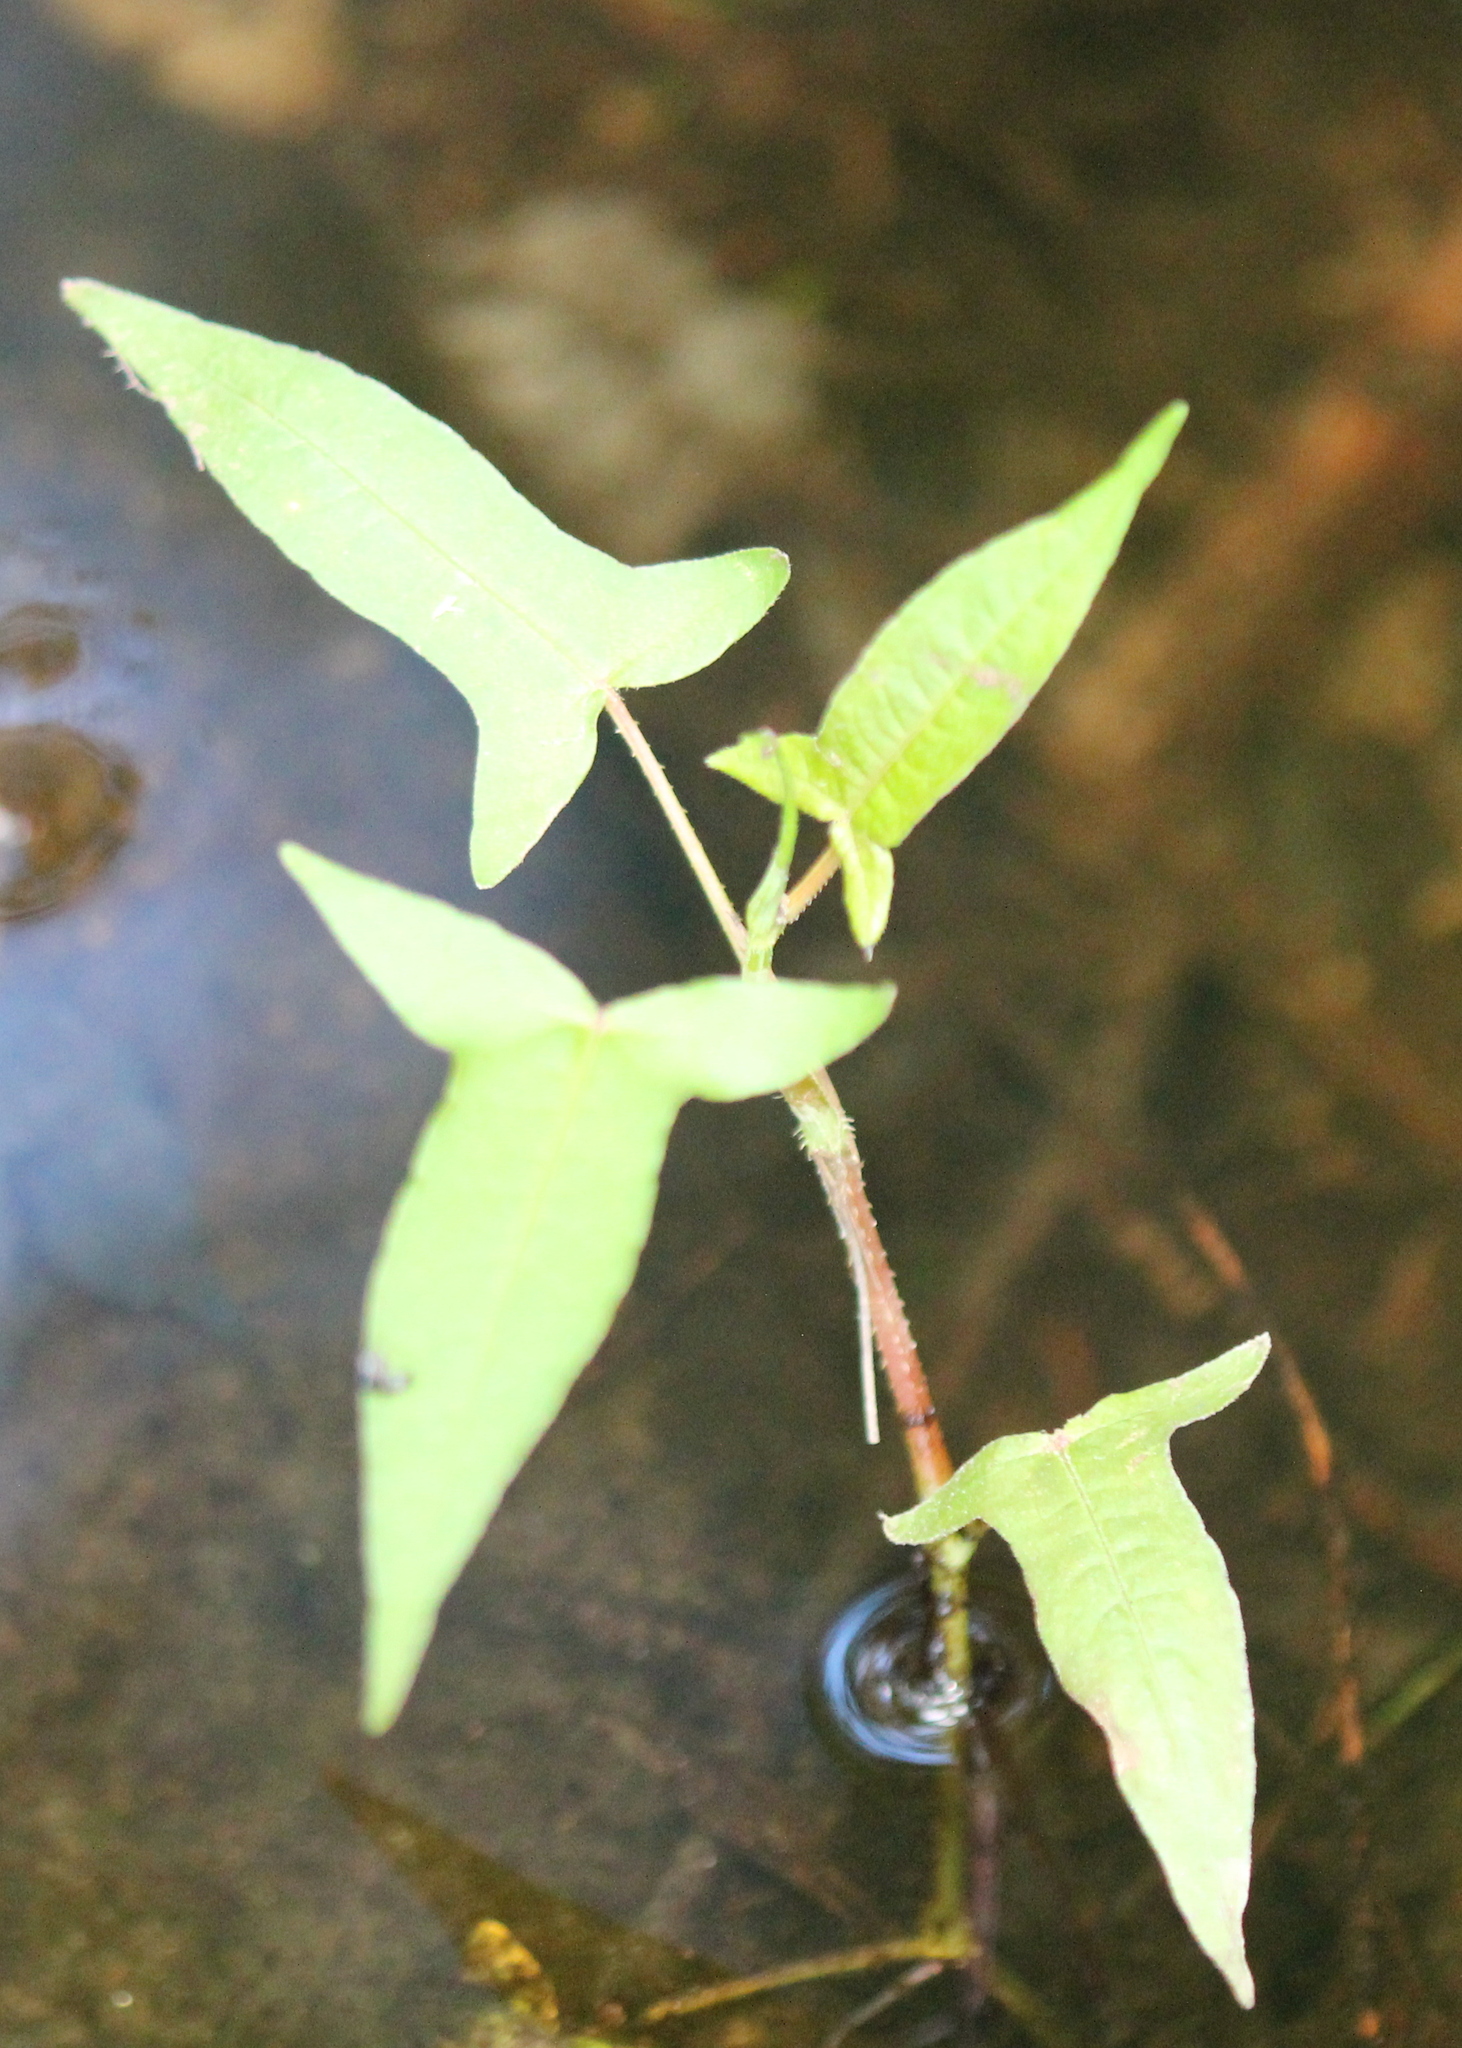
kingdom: Plantae
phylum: Tracheophyta
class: Magnoliopsida
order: Caryophyllales
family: Polygonaceae
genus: Persicaria
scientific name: Persicaria arifolia
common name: Halberd-leaved tear-thumb
